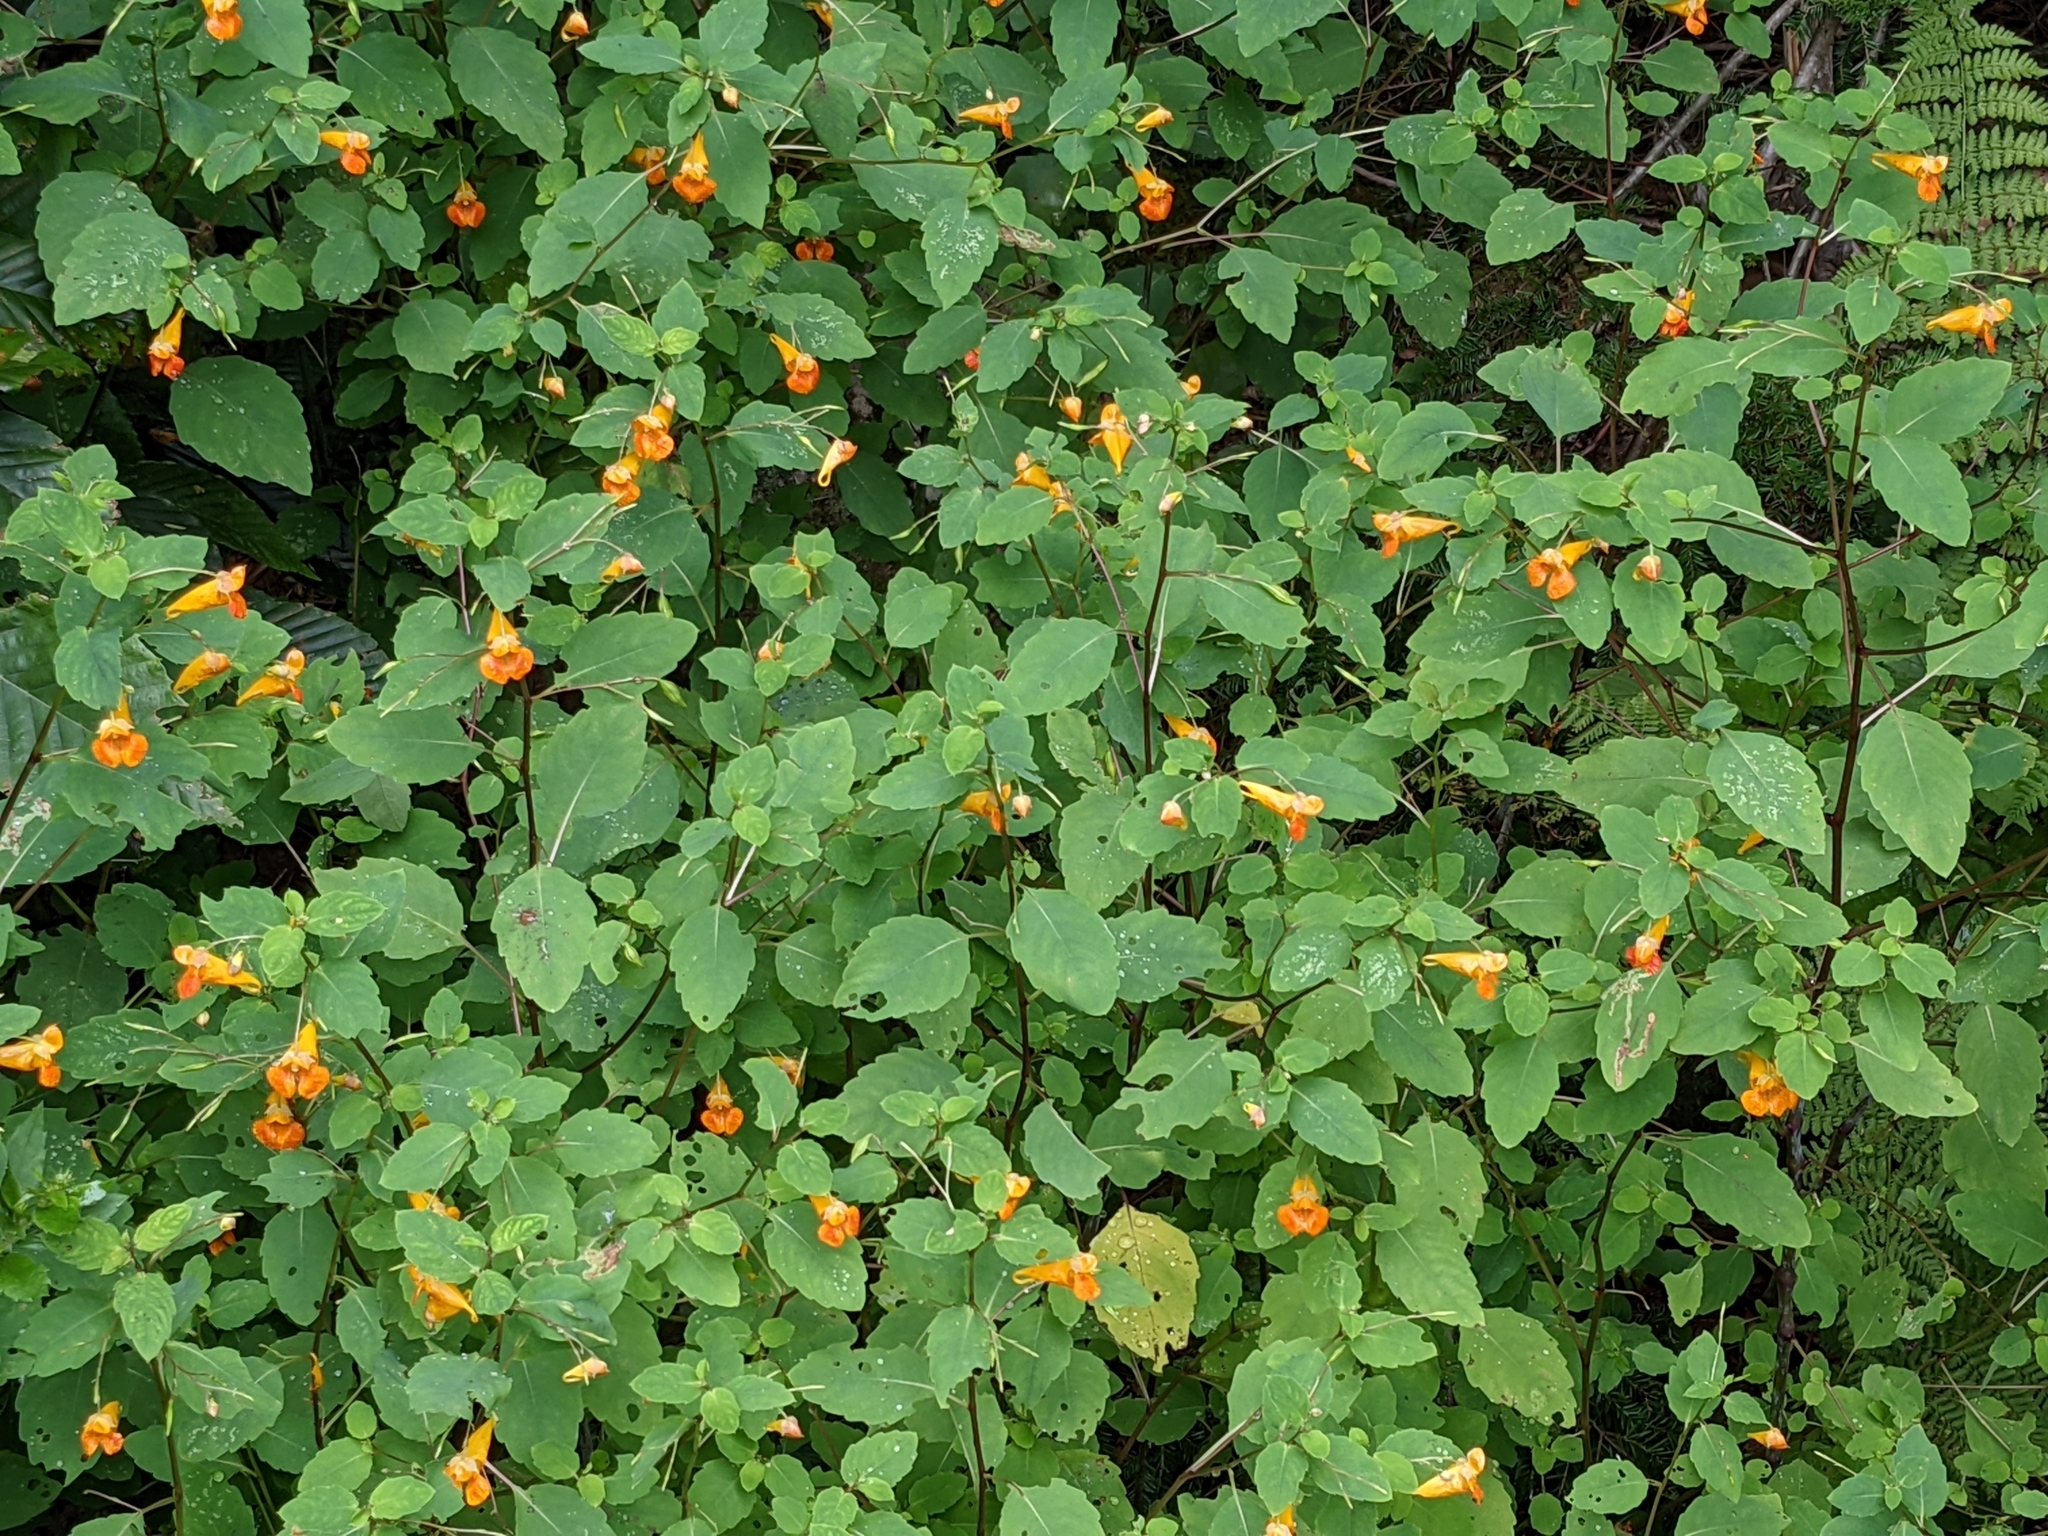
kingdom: Plantae
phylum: Tracheophyta
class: Magnoliopsida
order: Ericales
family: Balsaminaceae
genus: Impatiens
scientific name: Impatiens capensis
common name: Orange balsam
